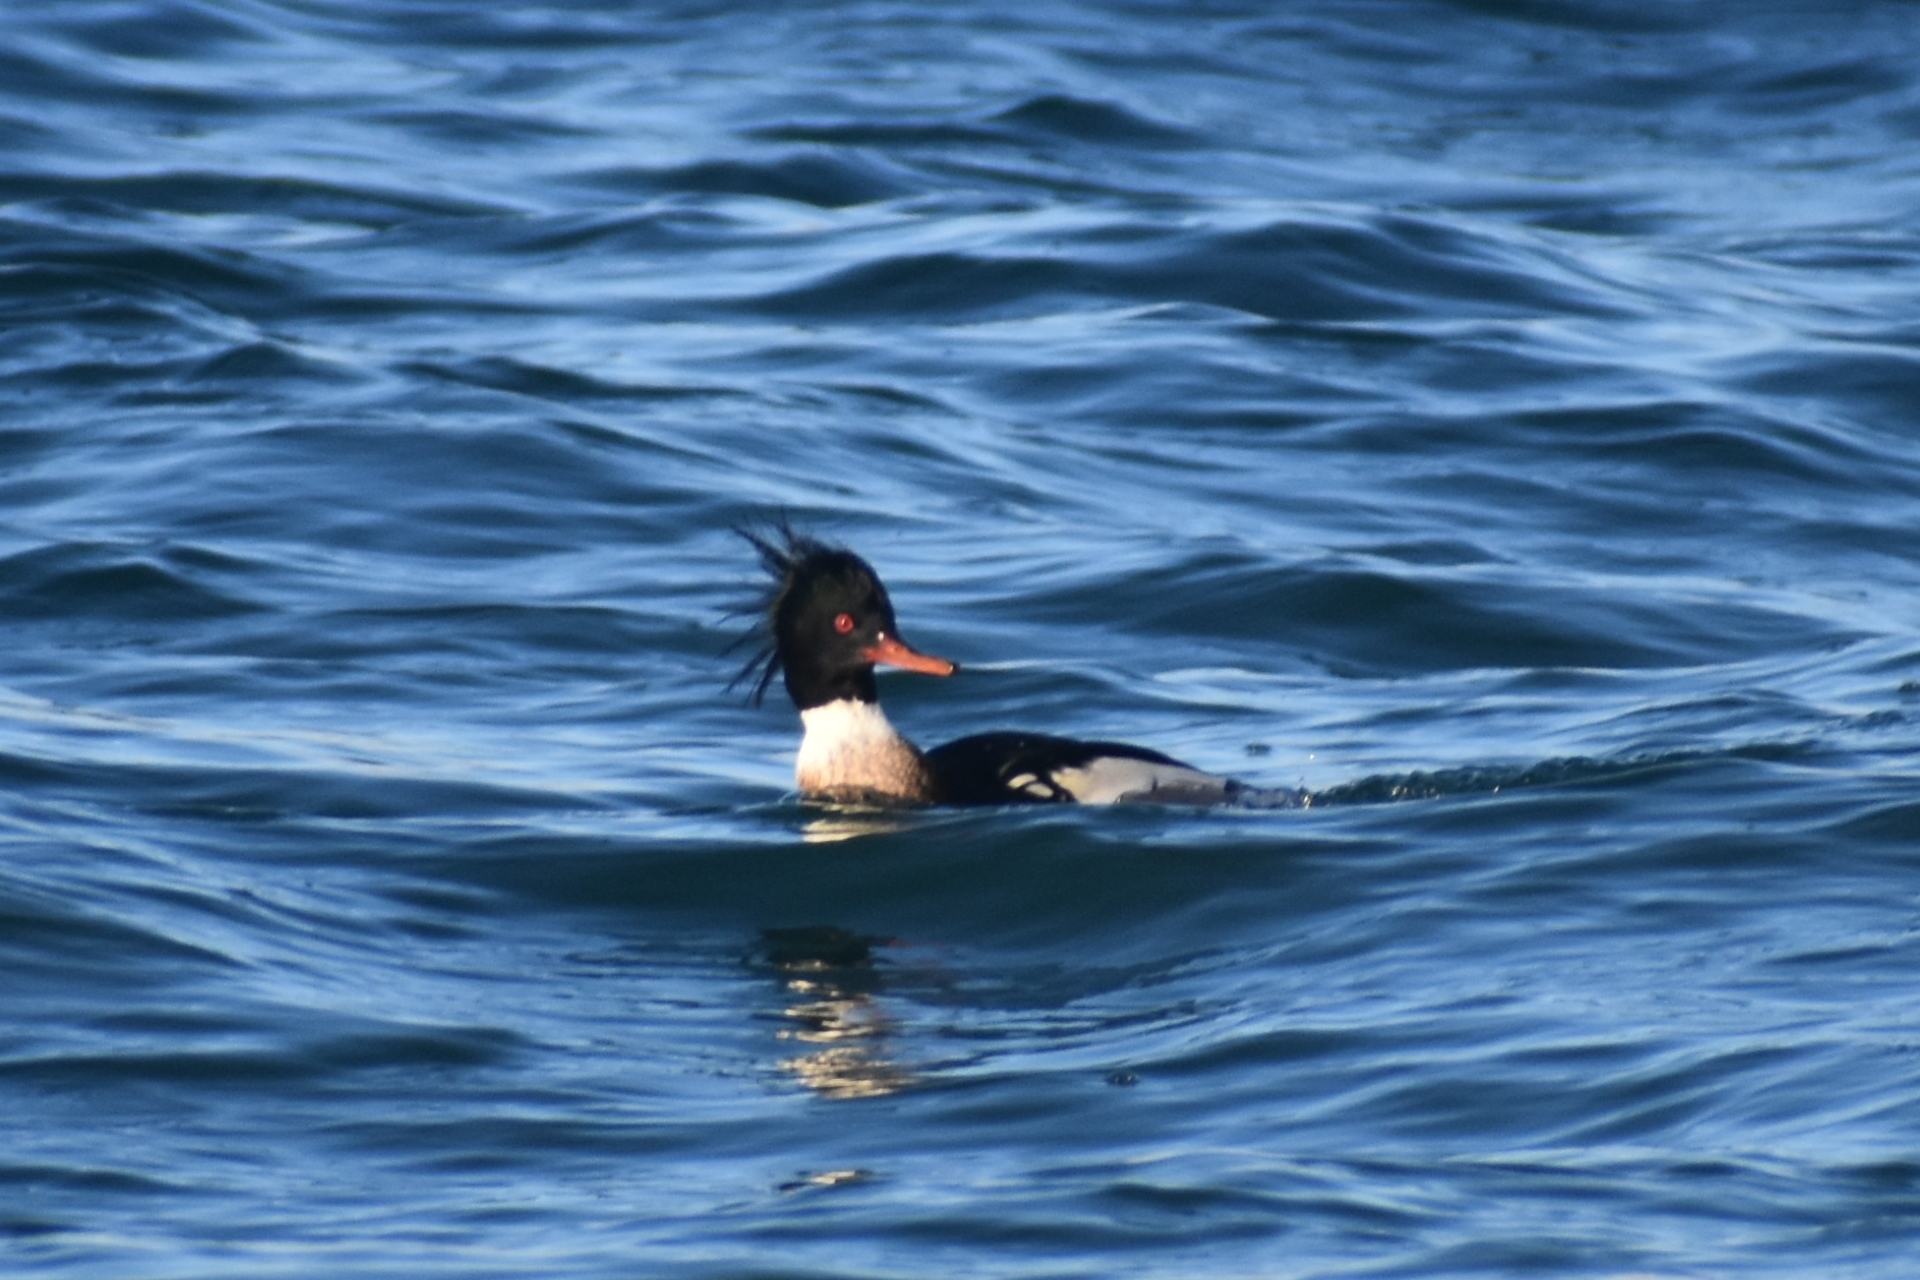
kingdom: Animalia
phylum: Chordata
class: Aves
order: Anseriformes
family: Anatidae
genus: Mergus
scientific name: Mergus serrator
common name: Red-breasted merganser
